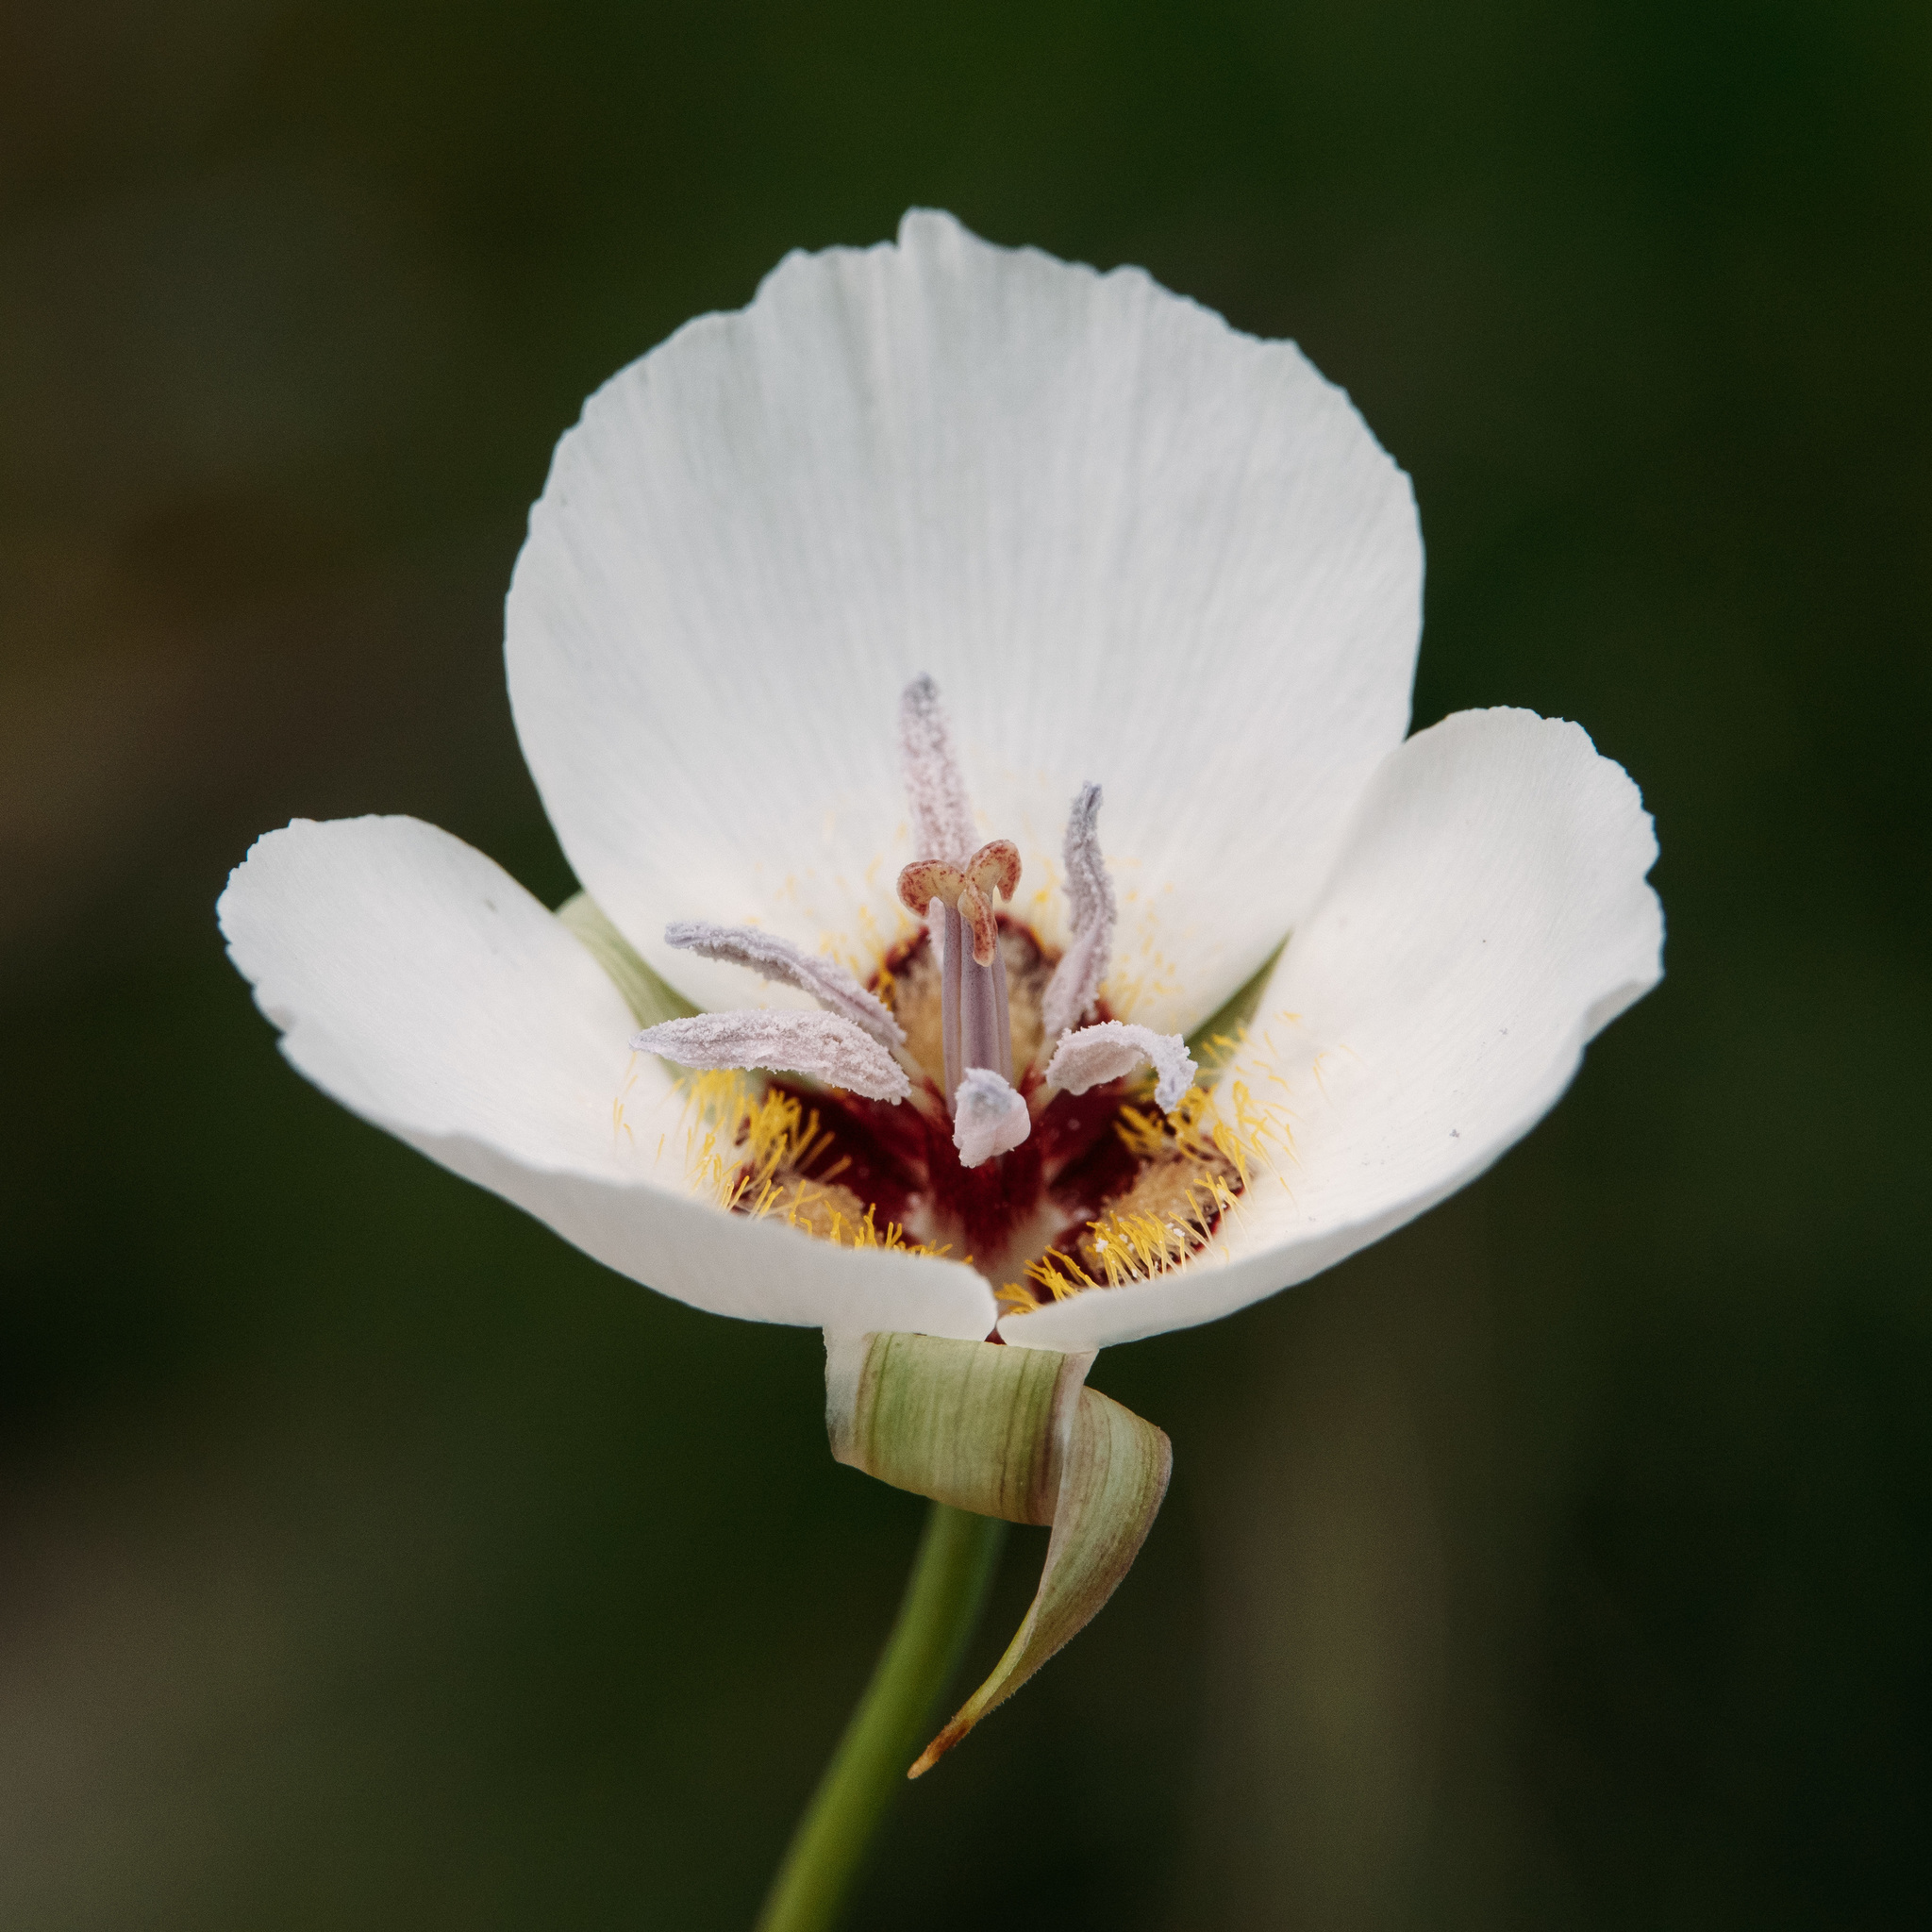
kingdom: Plantae
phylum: Tracheophyta
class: Liliopsida
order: Liliales
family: Liliaceae
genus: Calochortus
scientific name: Calochortus palmeri
